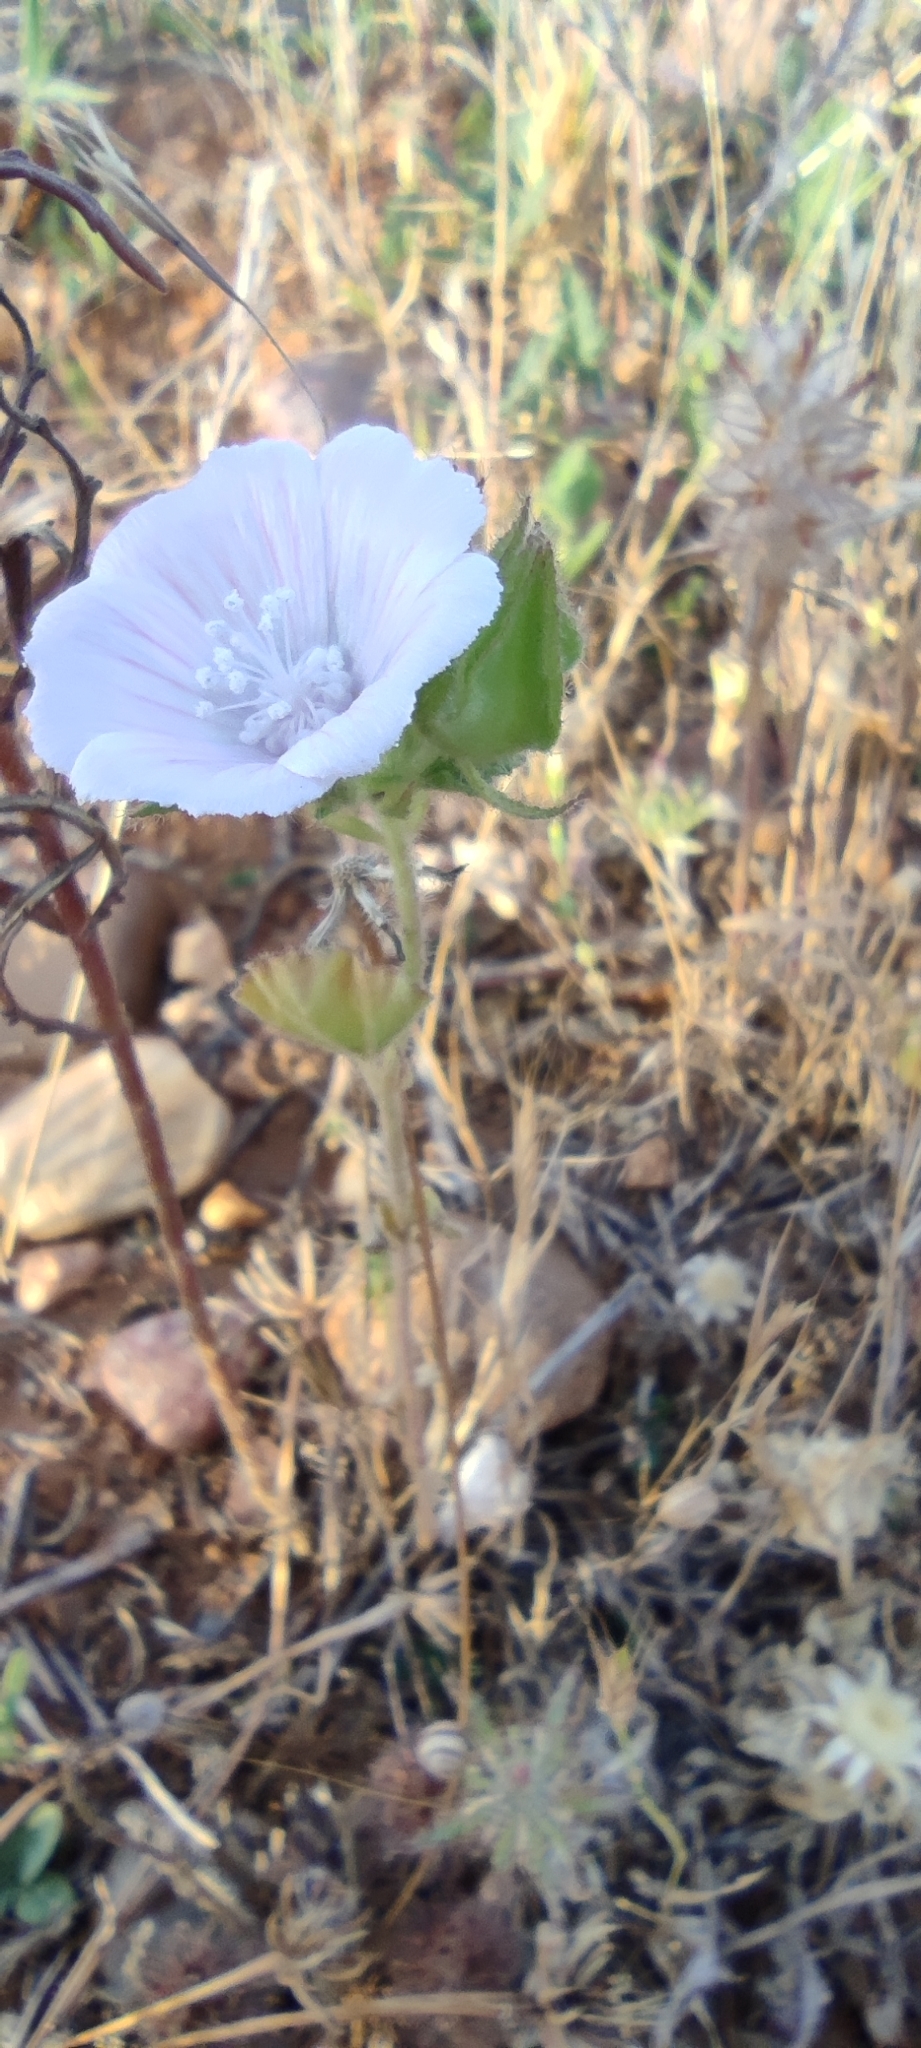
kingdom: Plantae
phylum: Tracheophyta
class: Magnoliopsida
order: Malvales
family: Malvaceae
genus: Malva
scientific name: Malva hispanica
